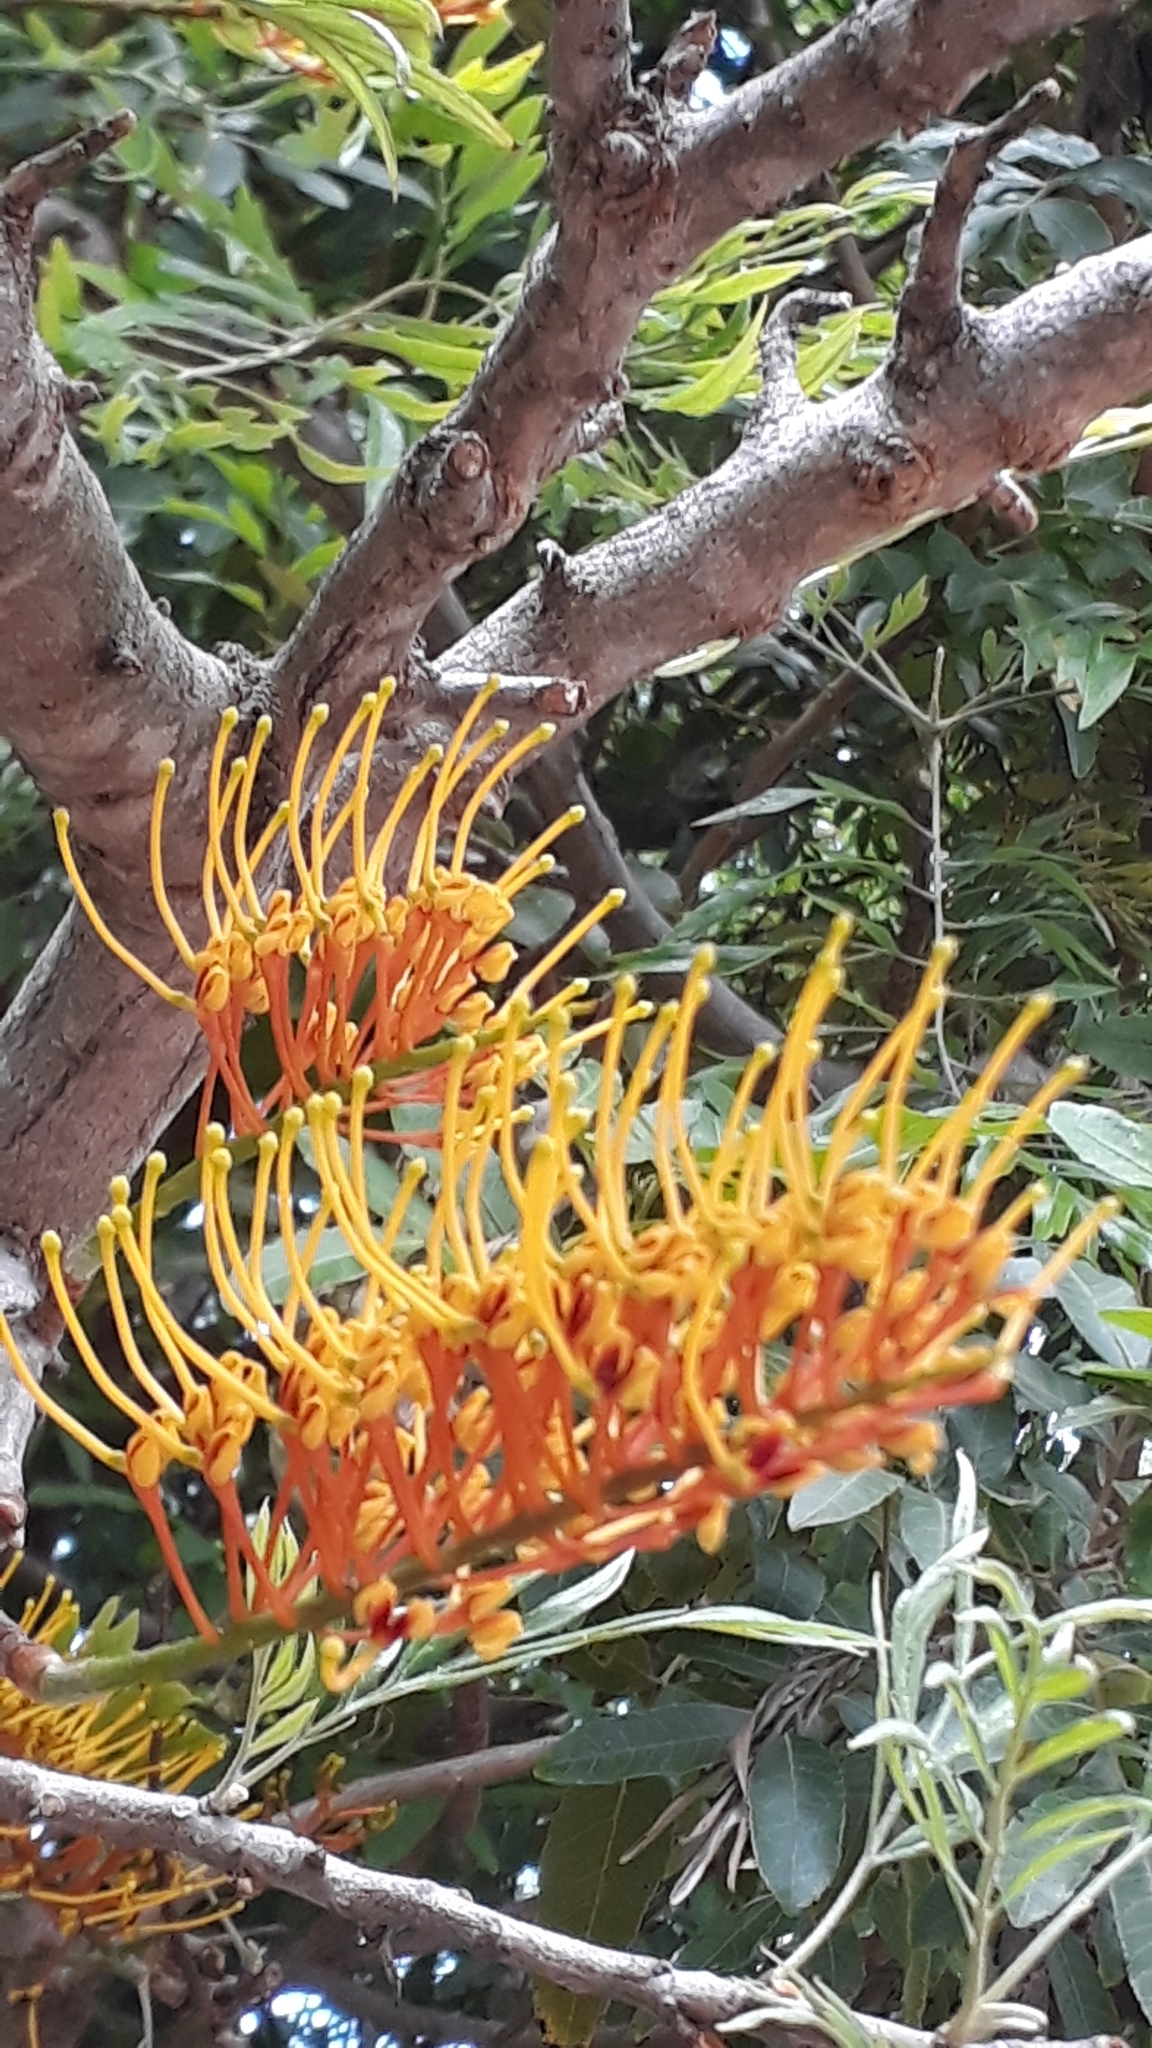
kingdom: Plantae
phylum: Tracheophyta
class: Magnoliopsida
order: Proteales
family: Proteaceae
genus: Grevillea
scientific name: Grevillea robusta
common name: Silkoak
